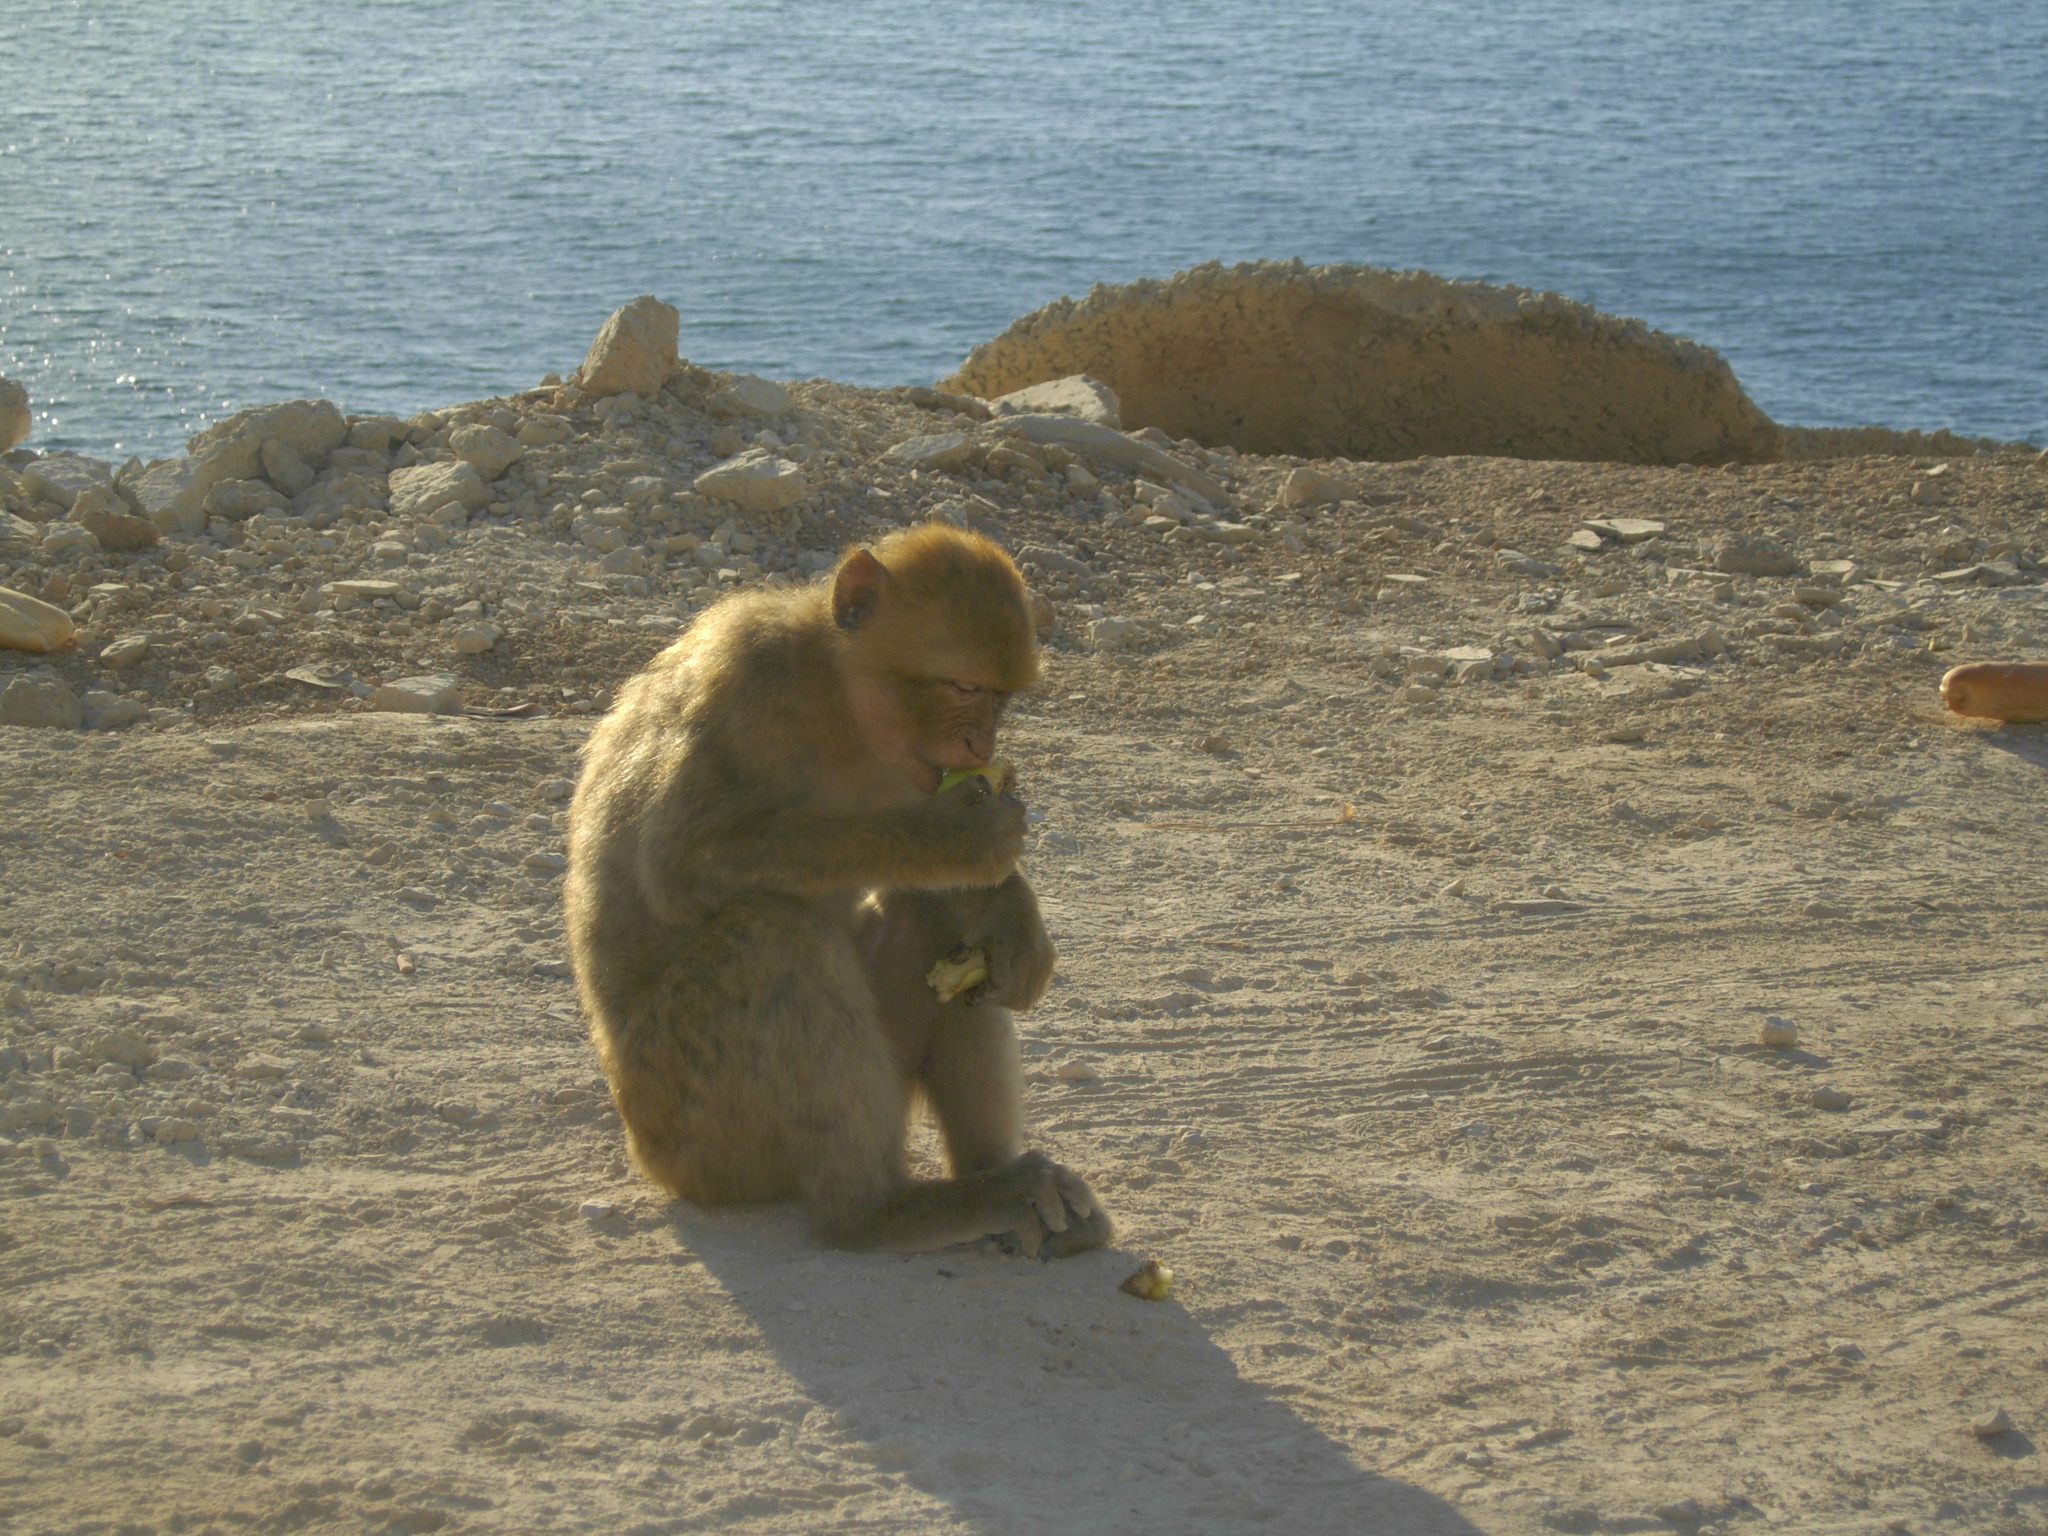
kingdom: Animalia
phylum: Chordata
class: Mammalia
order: Primates
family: Cercopithecidae
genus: Macaca
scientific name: Macaca sylvanus
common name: Barbary macaque
